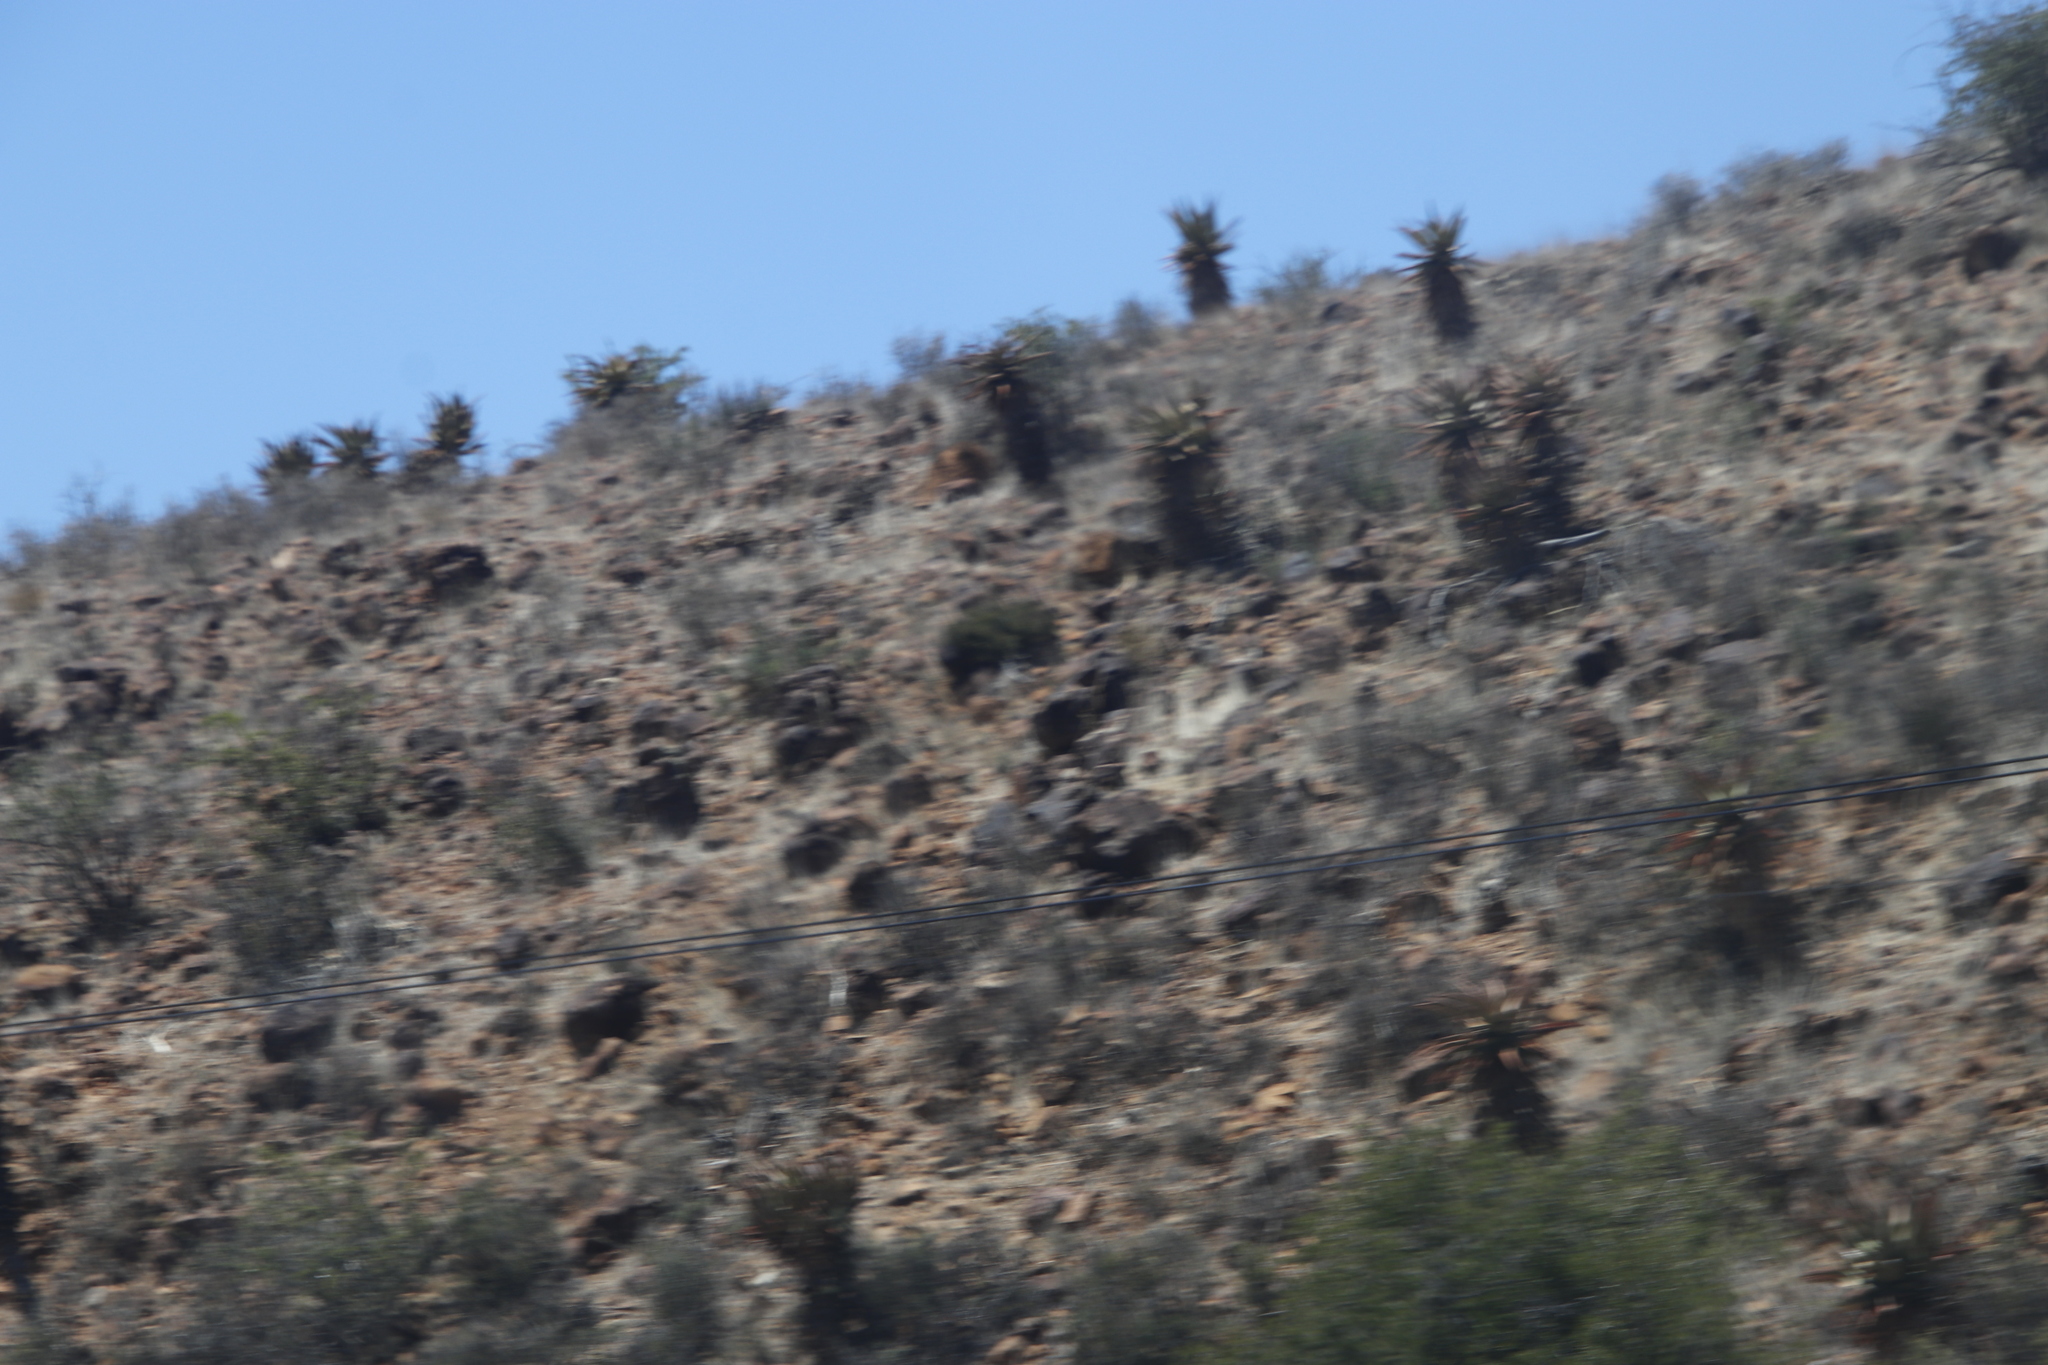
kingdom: Plantae
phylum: Tracheophyta
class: Liliopsida
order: Asparagales
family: Asphodelaceae
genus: Aloe
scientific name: Aloe ferox
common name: Bitter aloe
